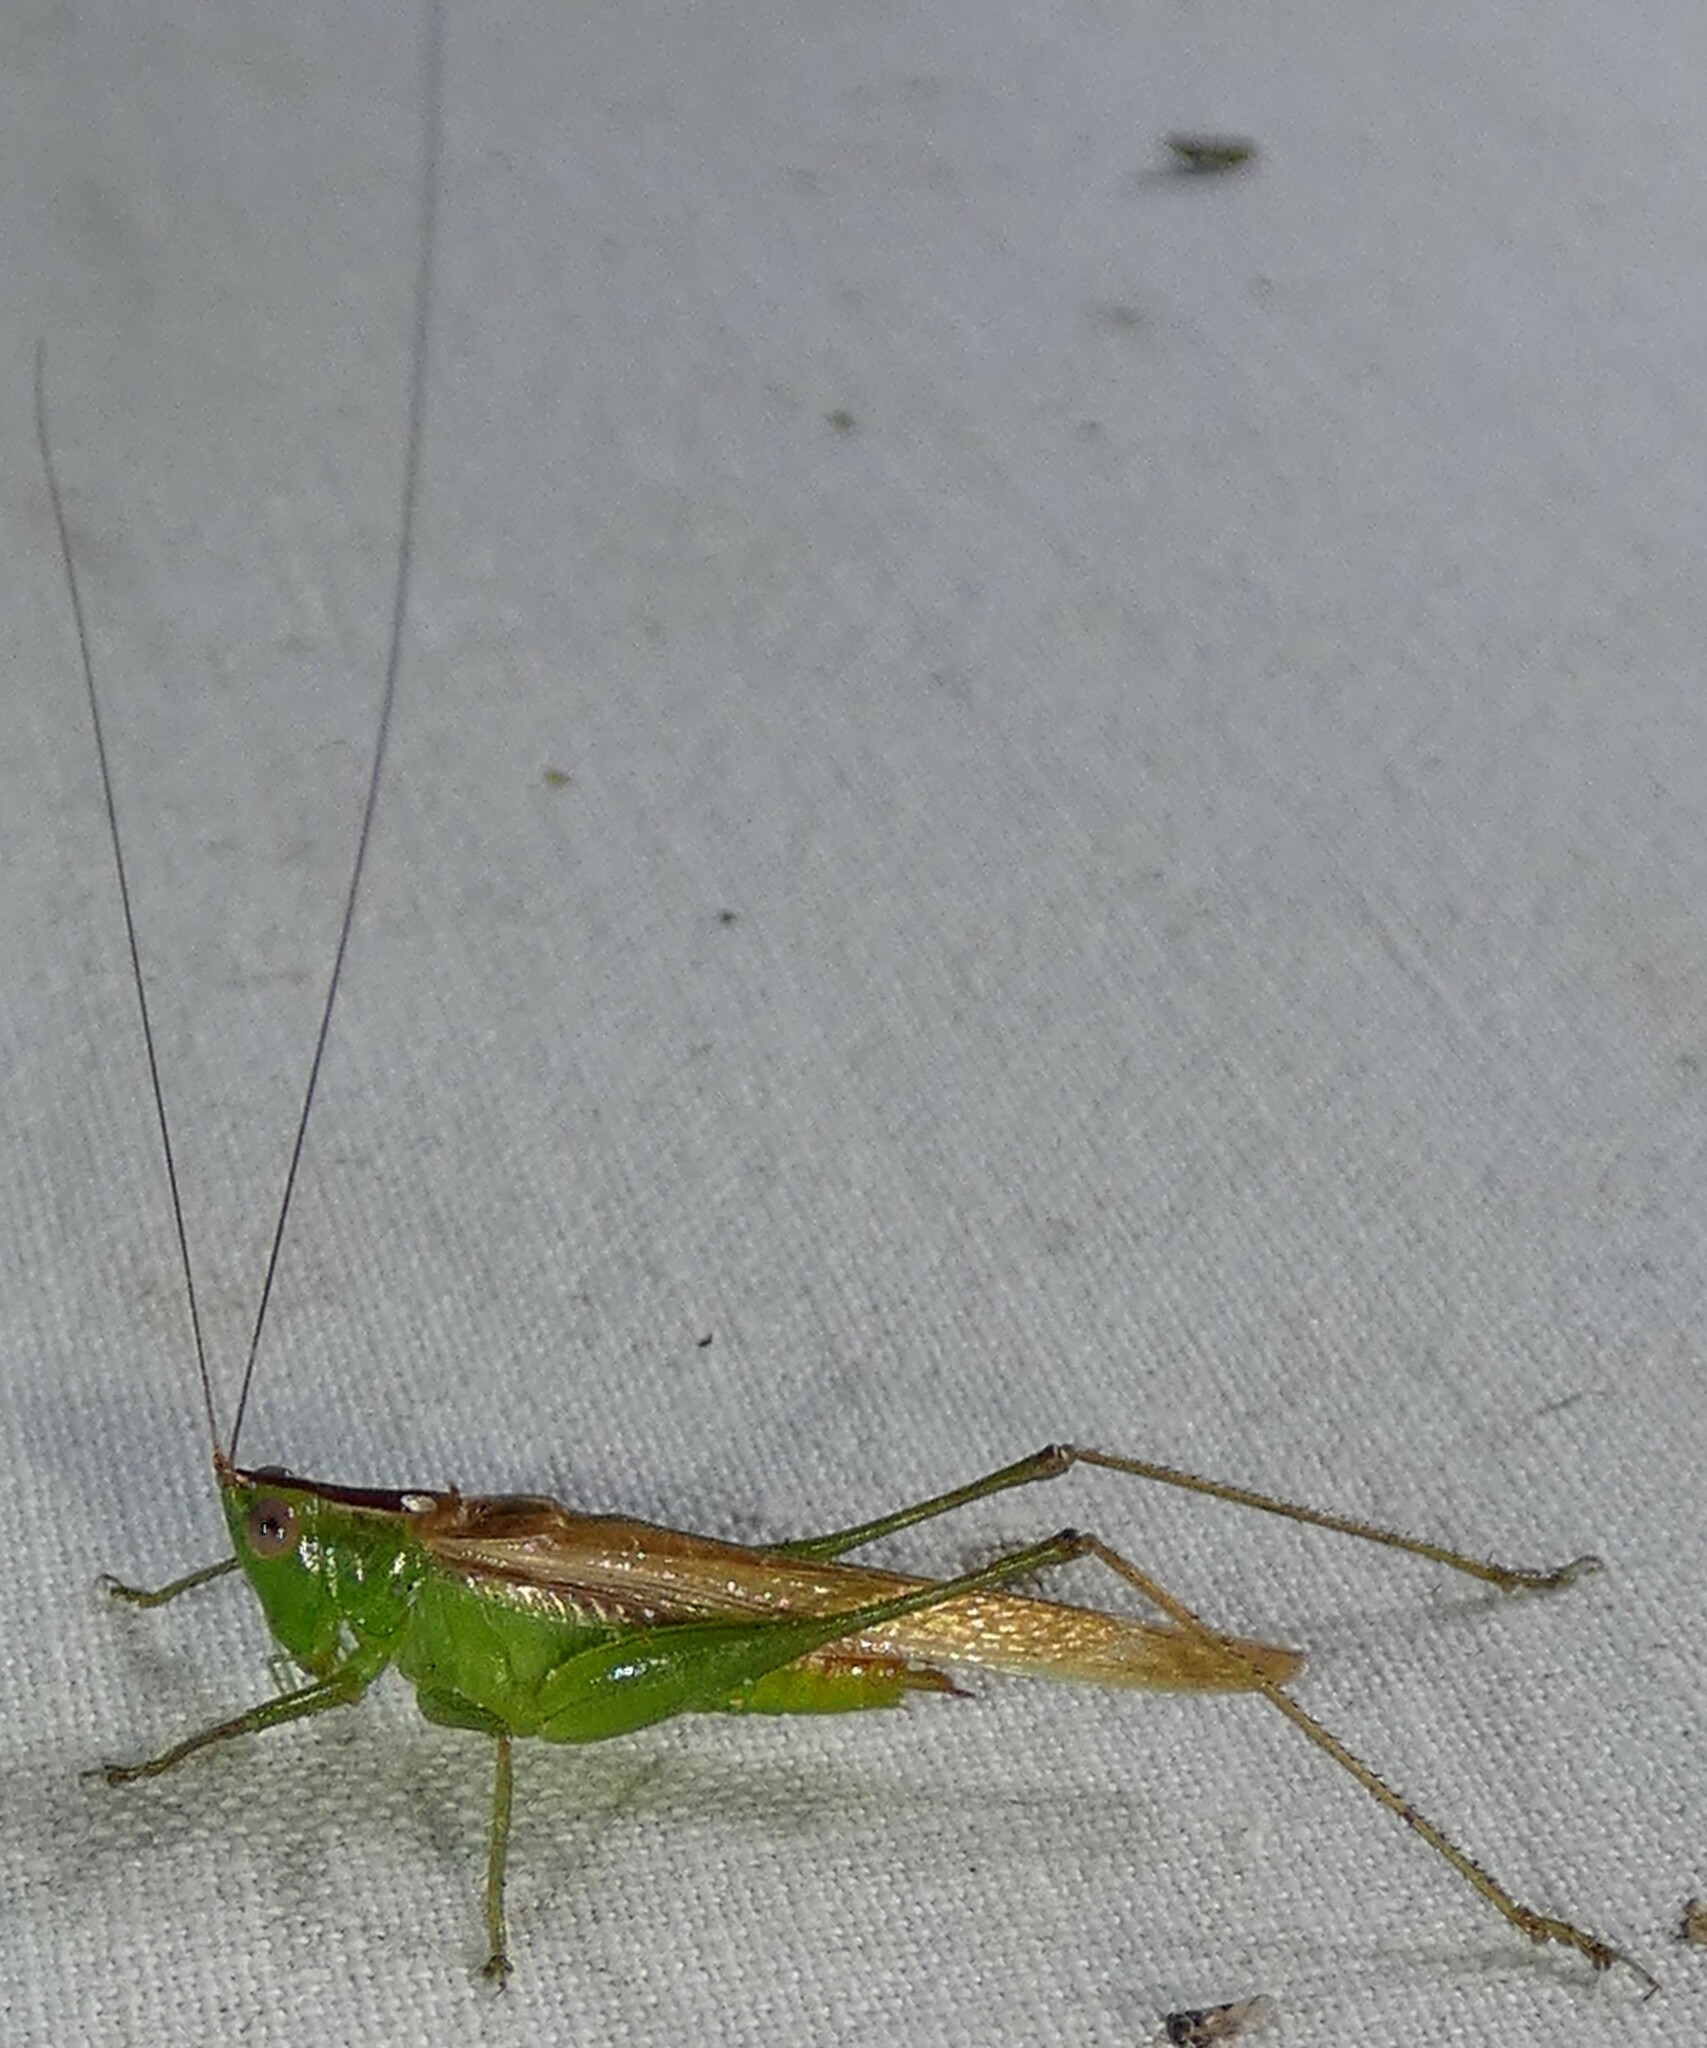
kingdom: Animalia
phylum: Arthropoda
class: Insecta
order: Orthoptera
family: Tettigoniidae
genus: Conocephalus
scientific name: Conocephalus fasciatus
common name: Slender meadow katydid
